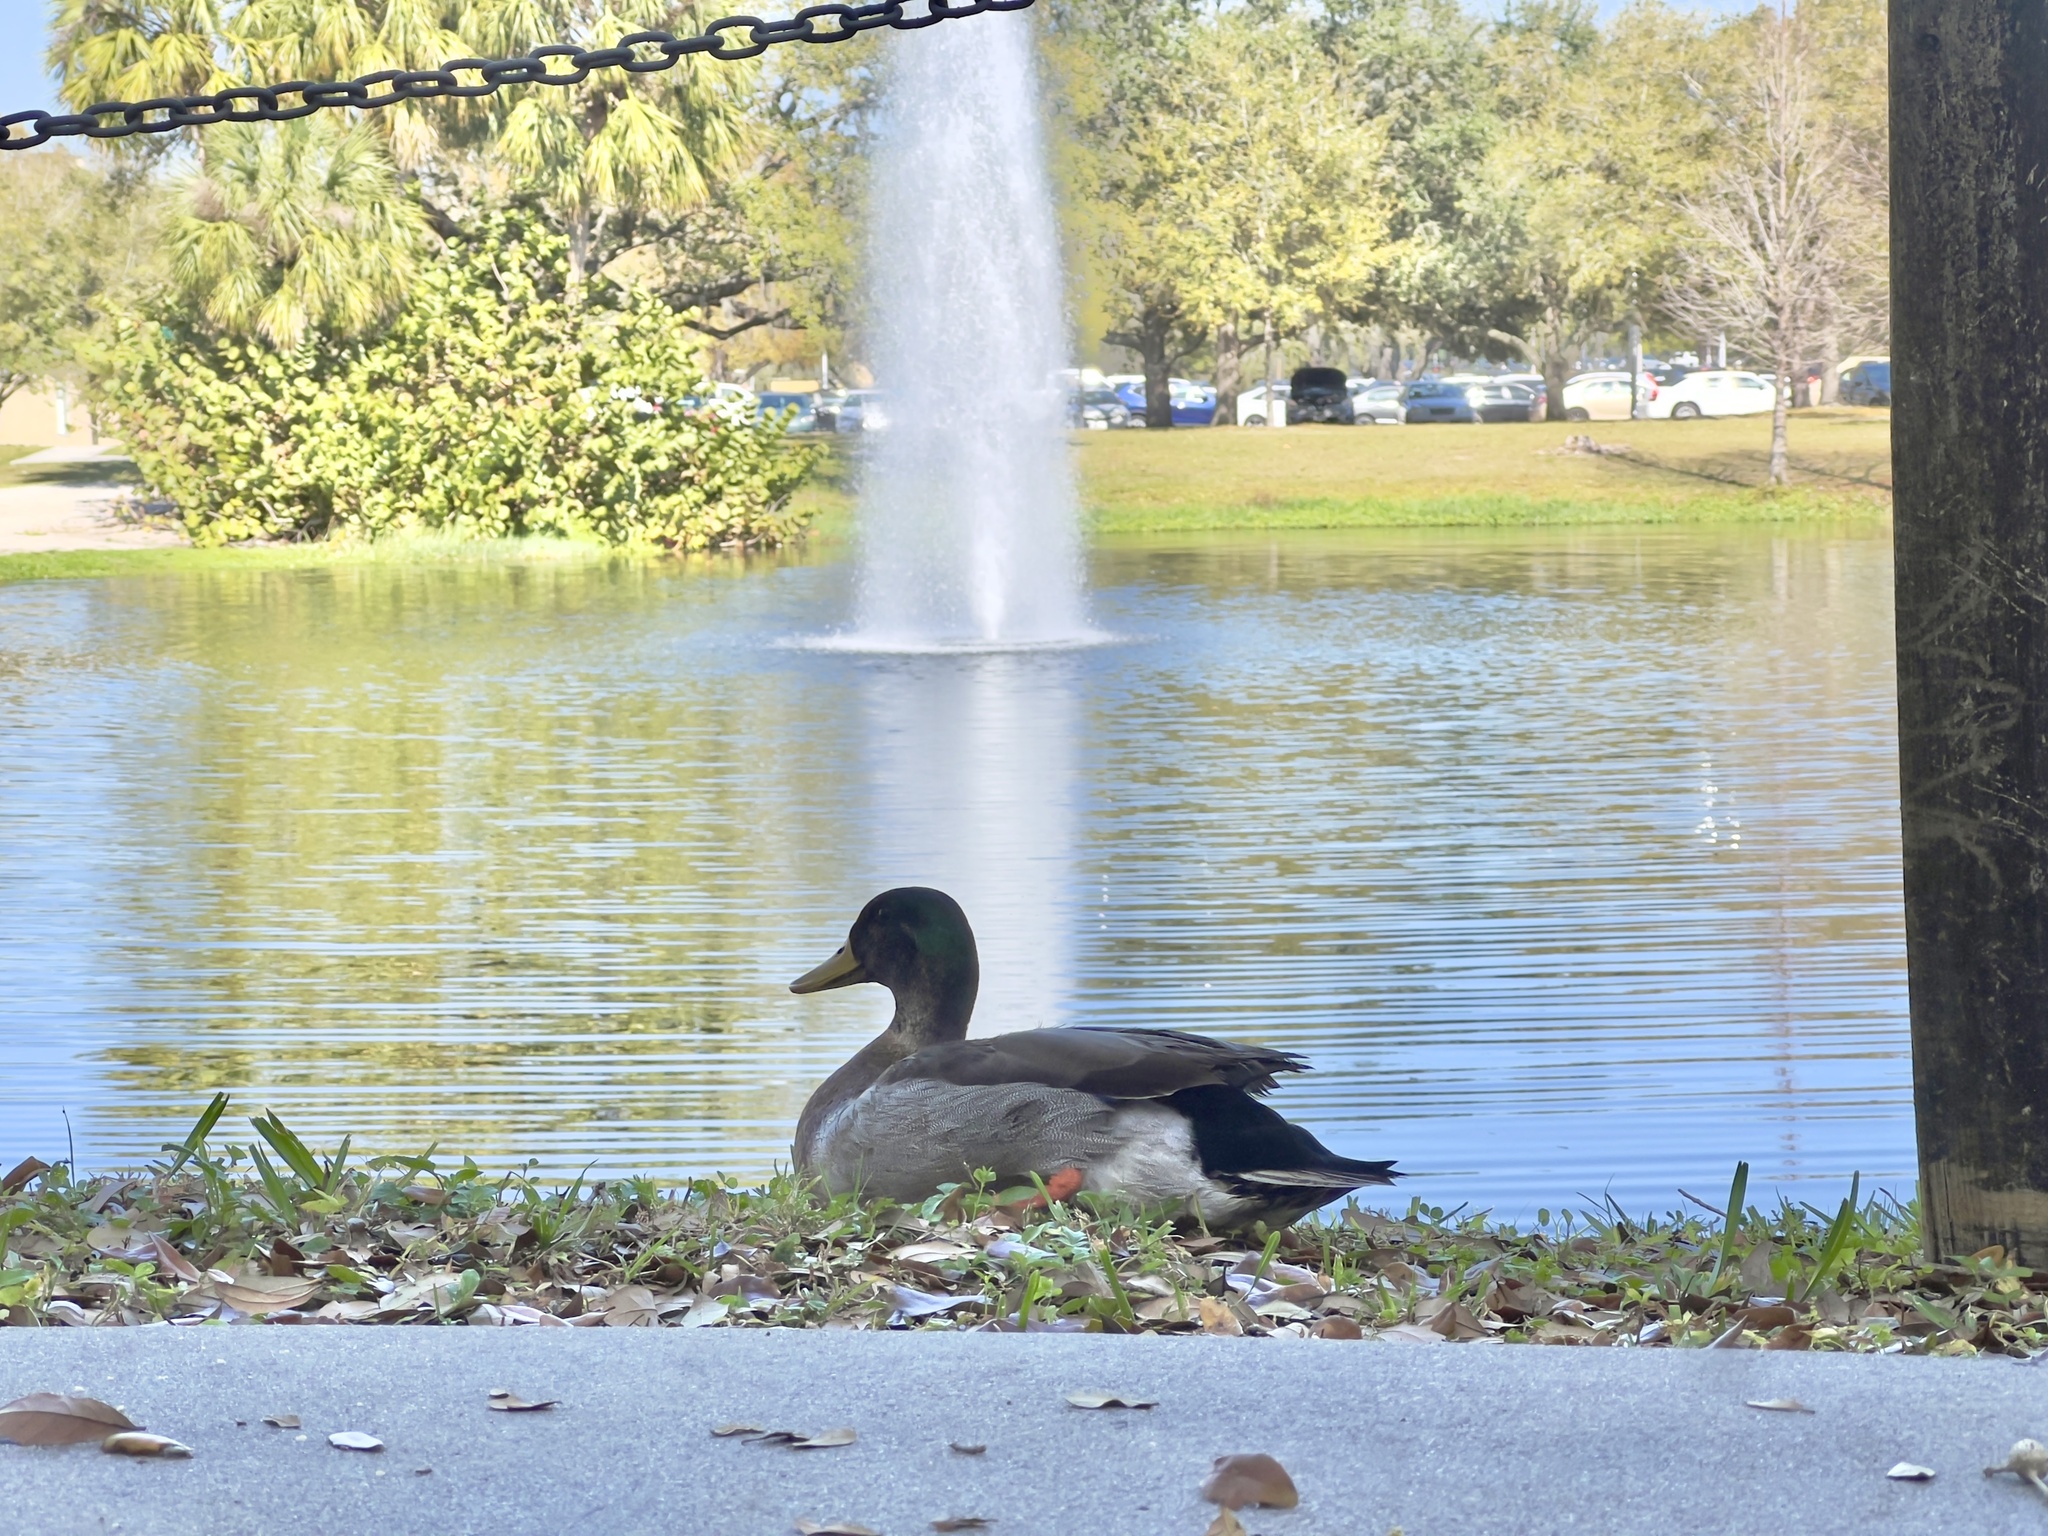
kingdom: Animalia
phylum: Chordata
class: Aves
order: Anseriformes
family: Anatidae
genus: Anas
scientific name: Anas platyrhynchos
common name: Mallard
